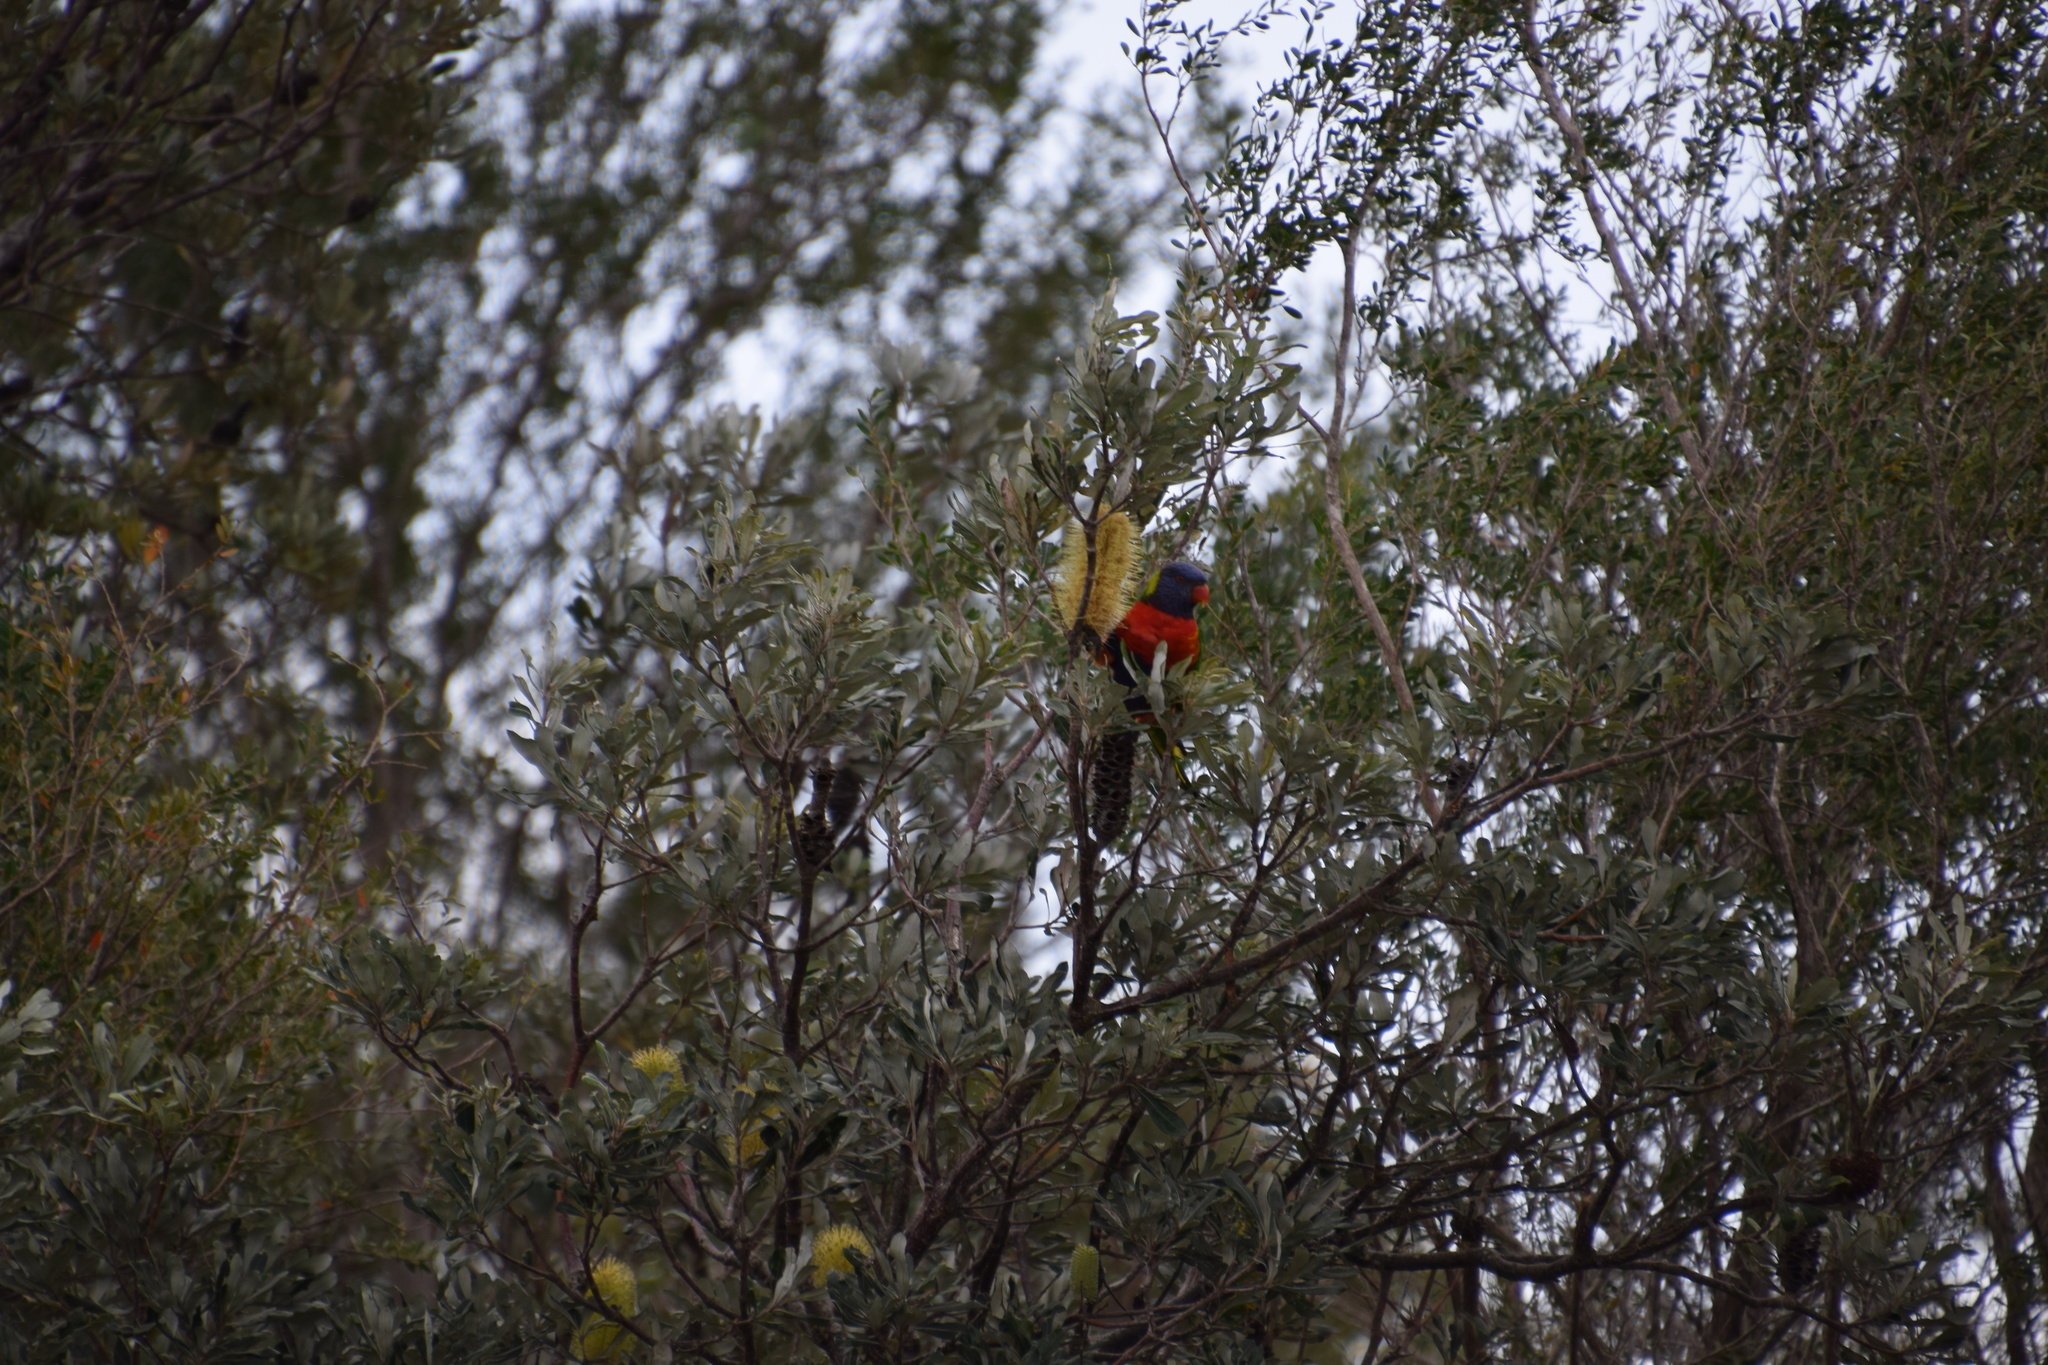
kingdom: Animalia
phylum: Chordata
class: Aves
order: Psittaciformes
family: Psittacidae
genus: Trichoglossus
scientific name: Trichoglossus haematodus
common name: Coconut lorikeet
